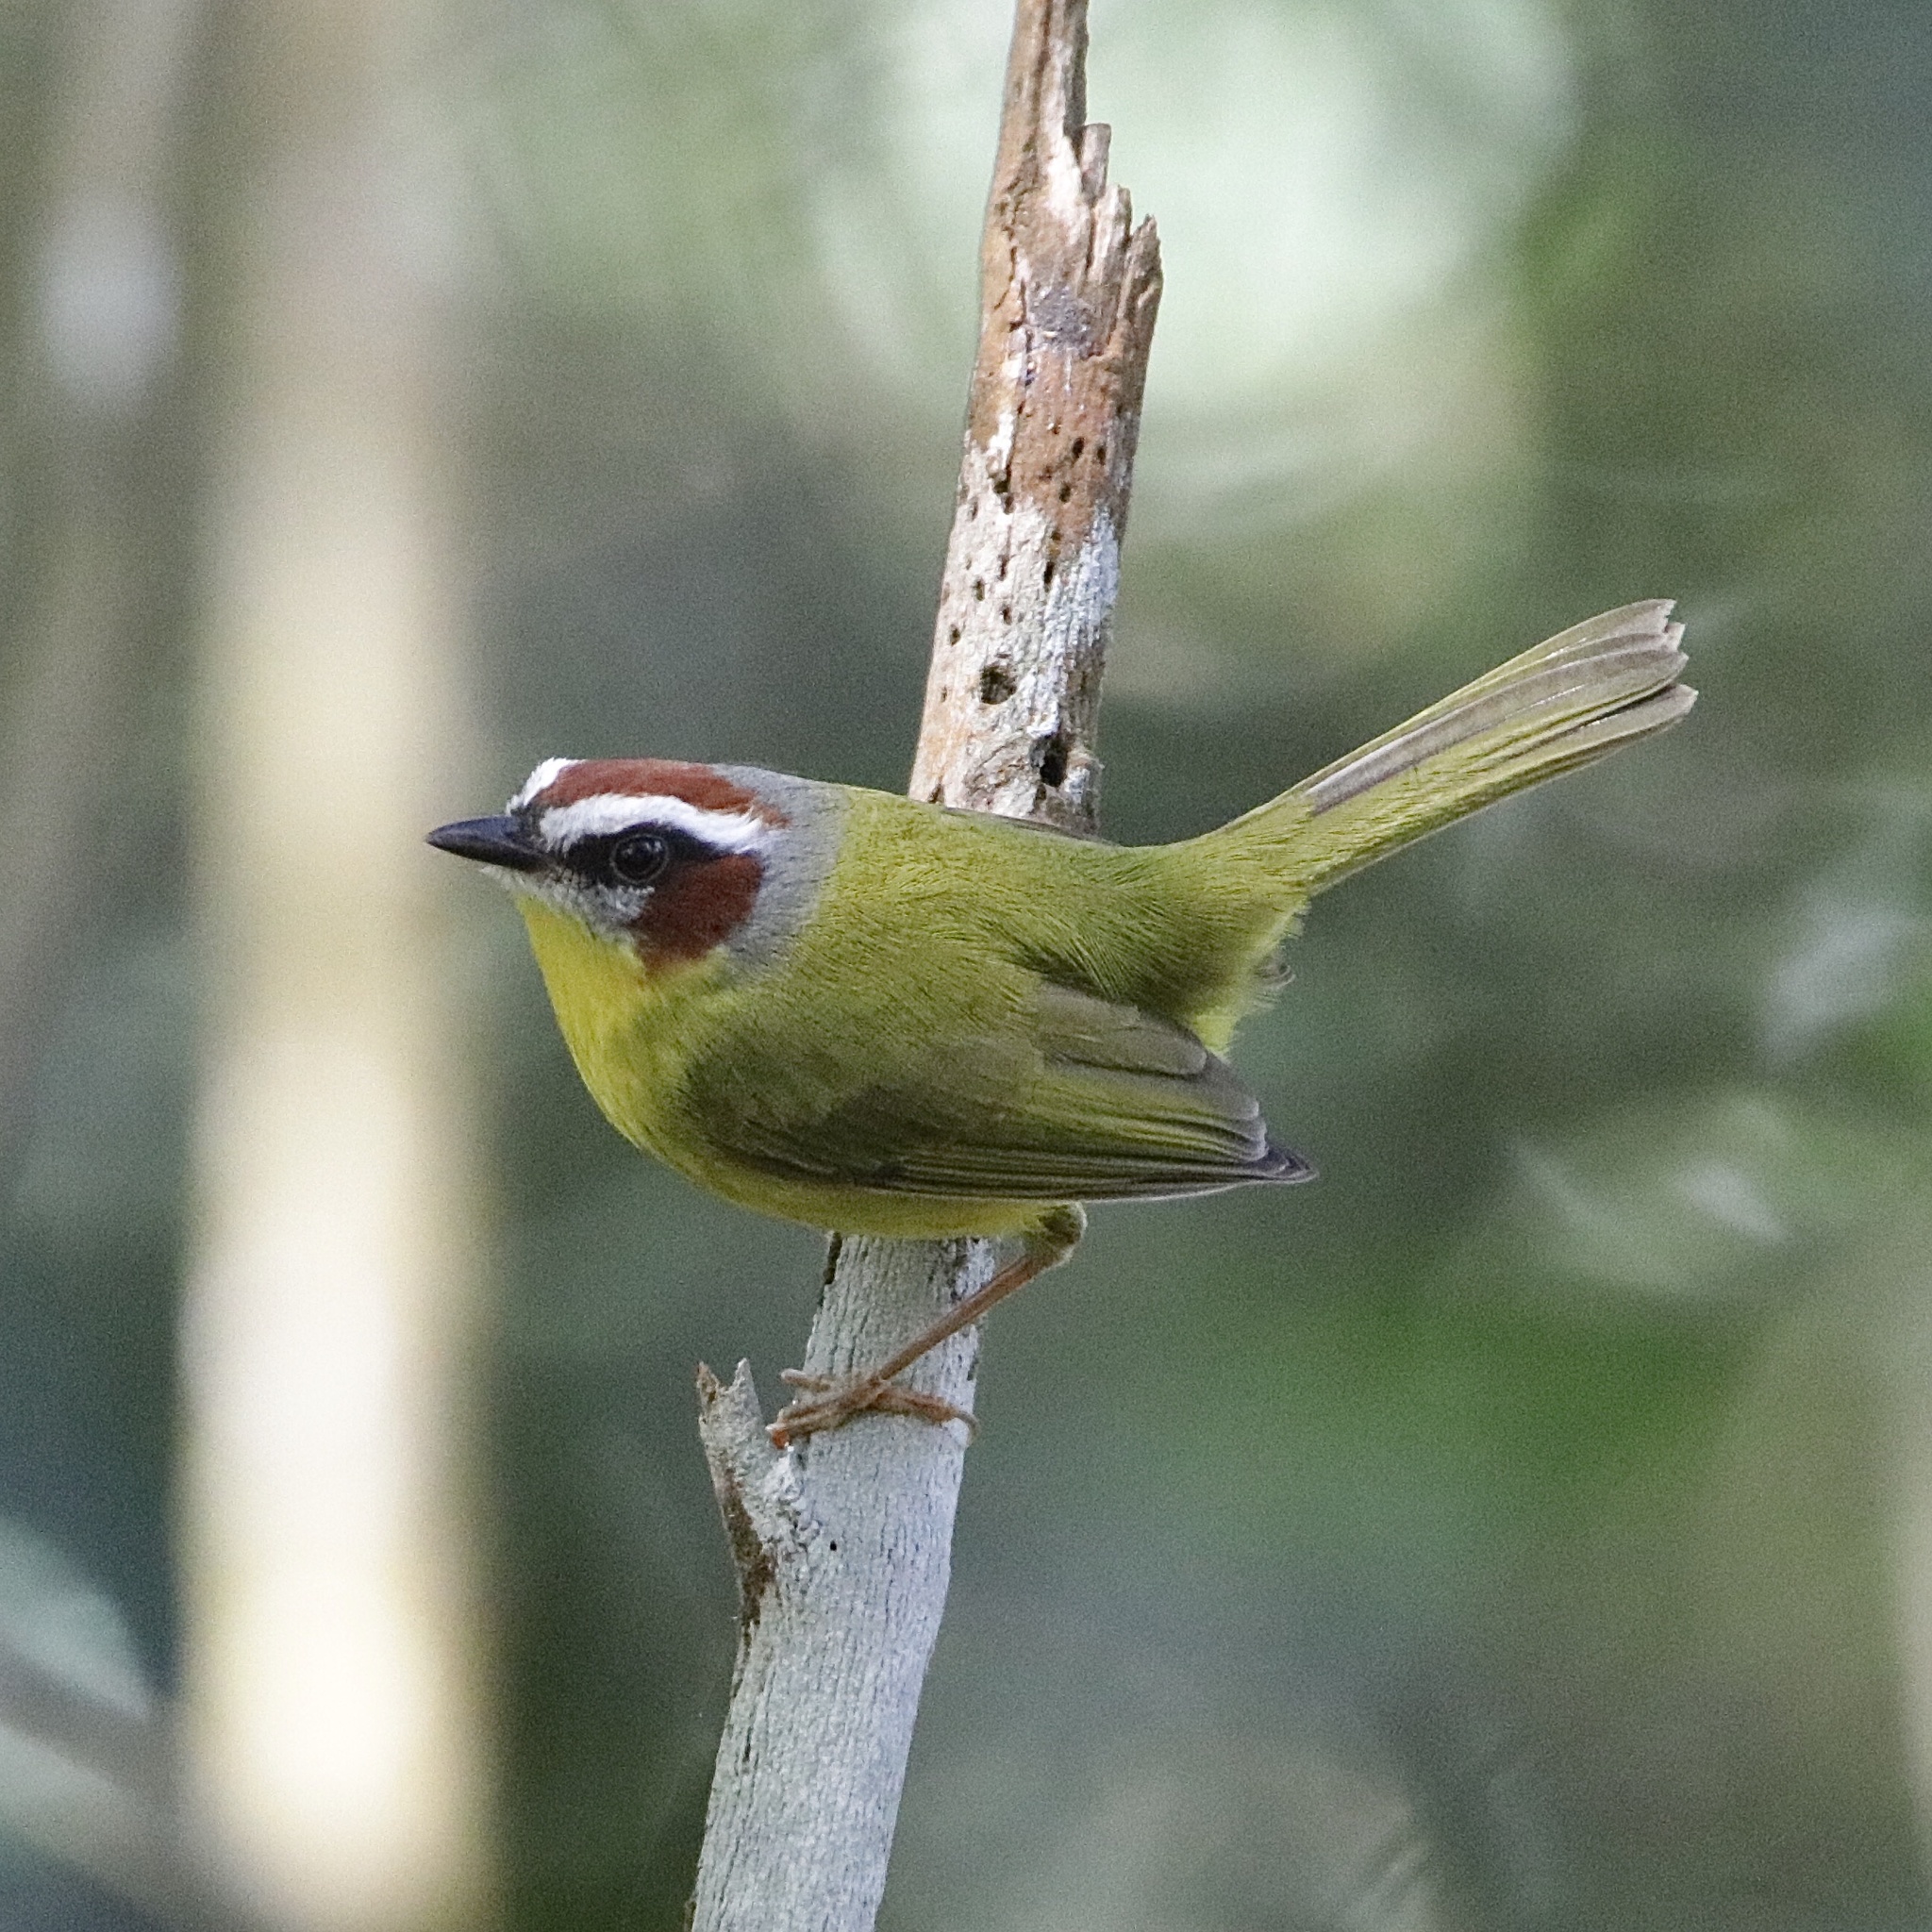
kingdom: Animalia
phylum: Chordata
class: Aves
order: Passeriformes
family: Parulidae
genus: Basileuterus
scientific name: Basileuterus rufifrons
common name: Rufous-capped warbler
